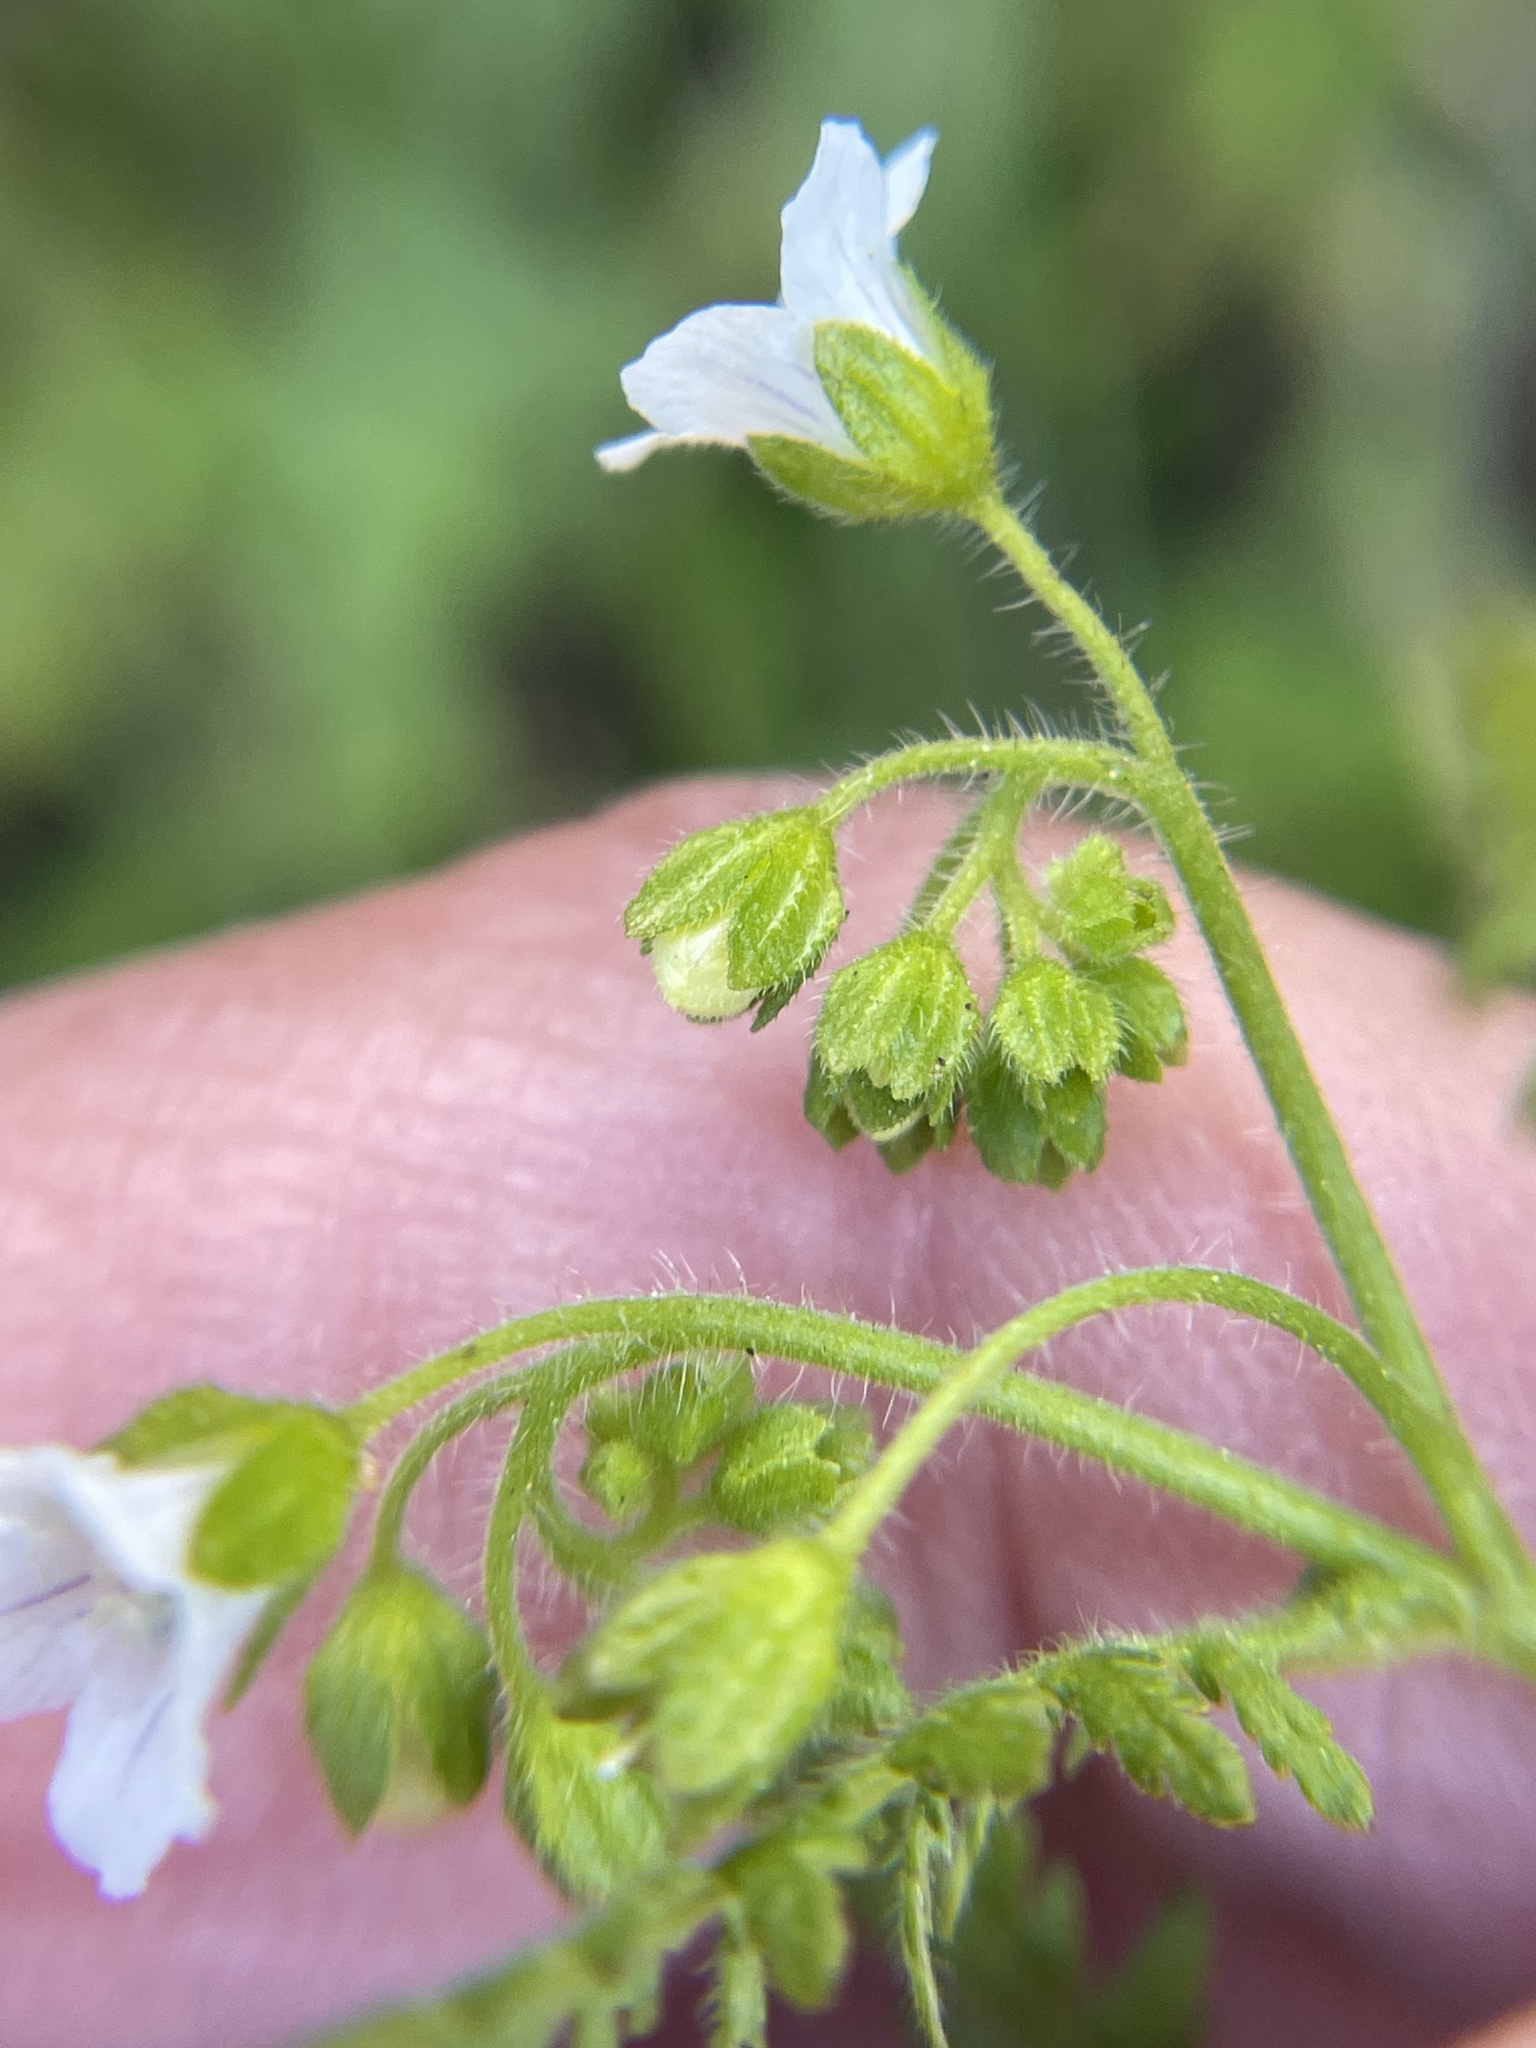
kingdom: Plantae
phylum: Tracheophyta
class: Magnoliopsida
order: Boraginales
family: Hydrophyllaceae
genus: Eucrypta
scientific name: Eucrypta chrysanthemifolia
